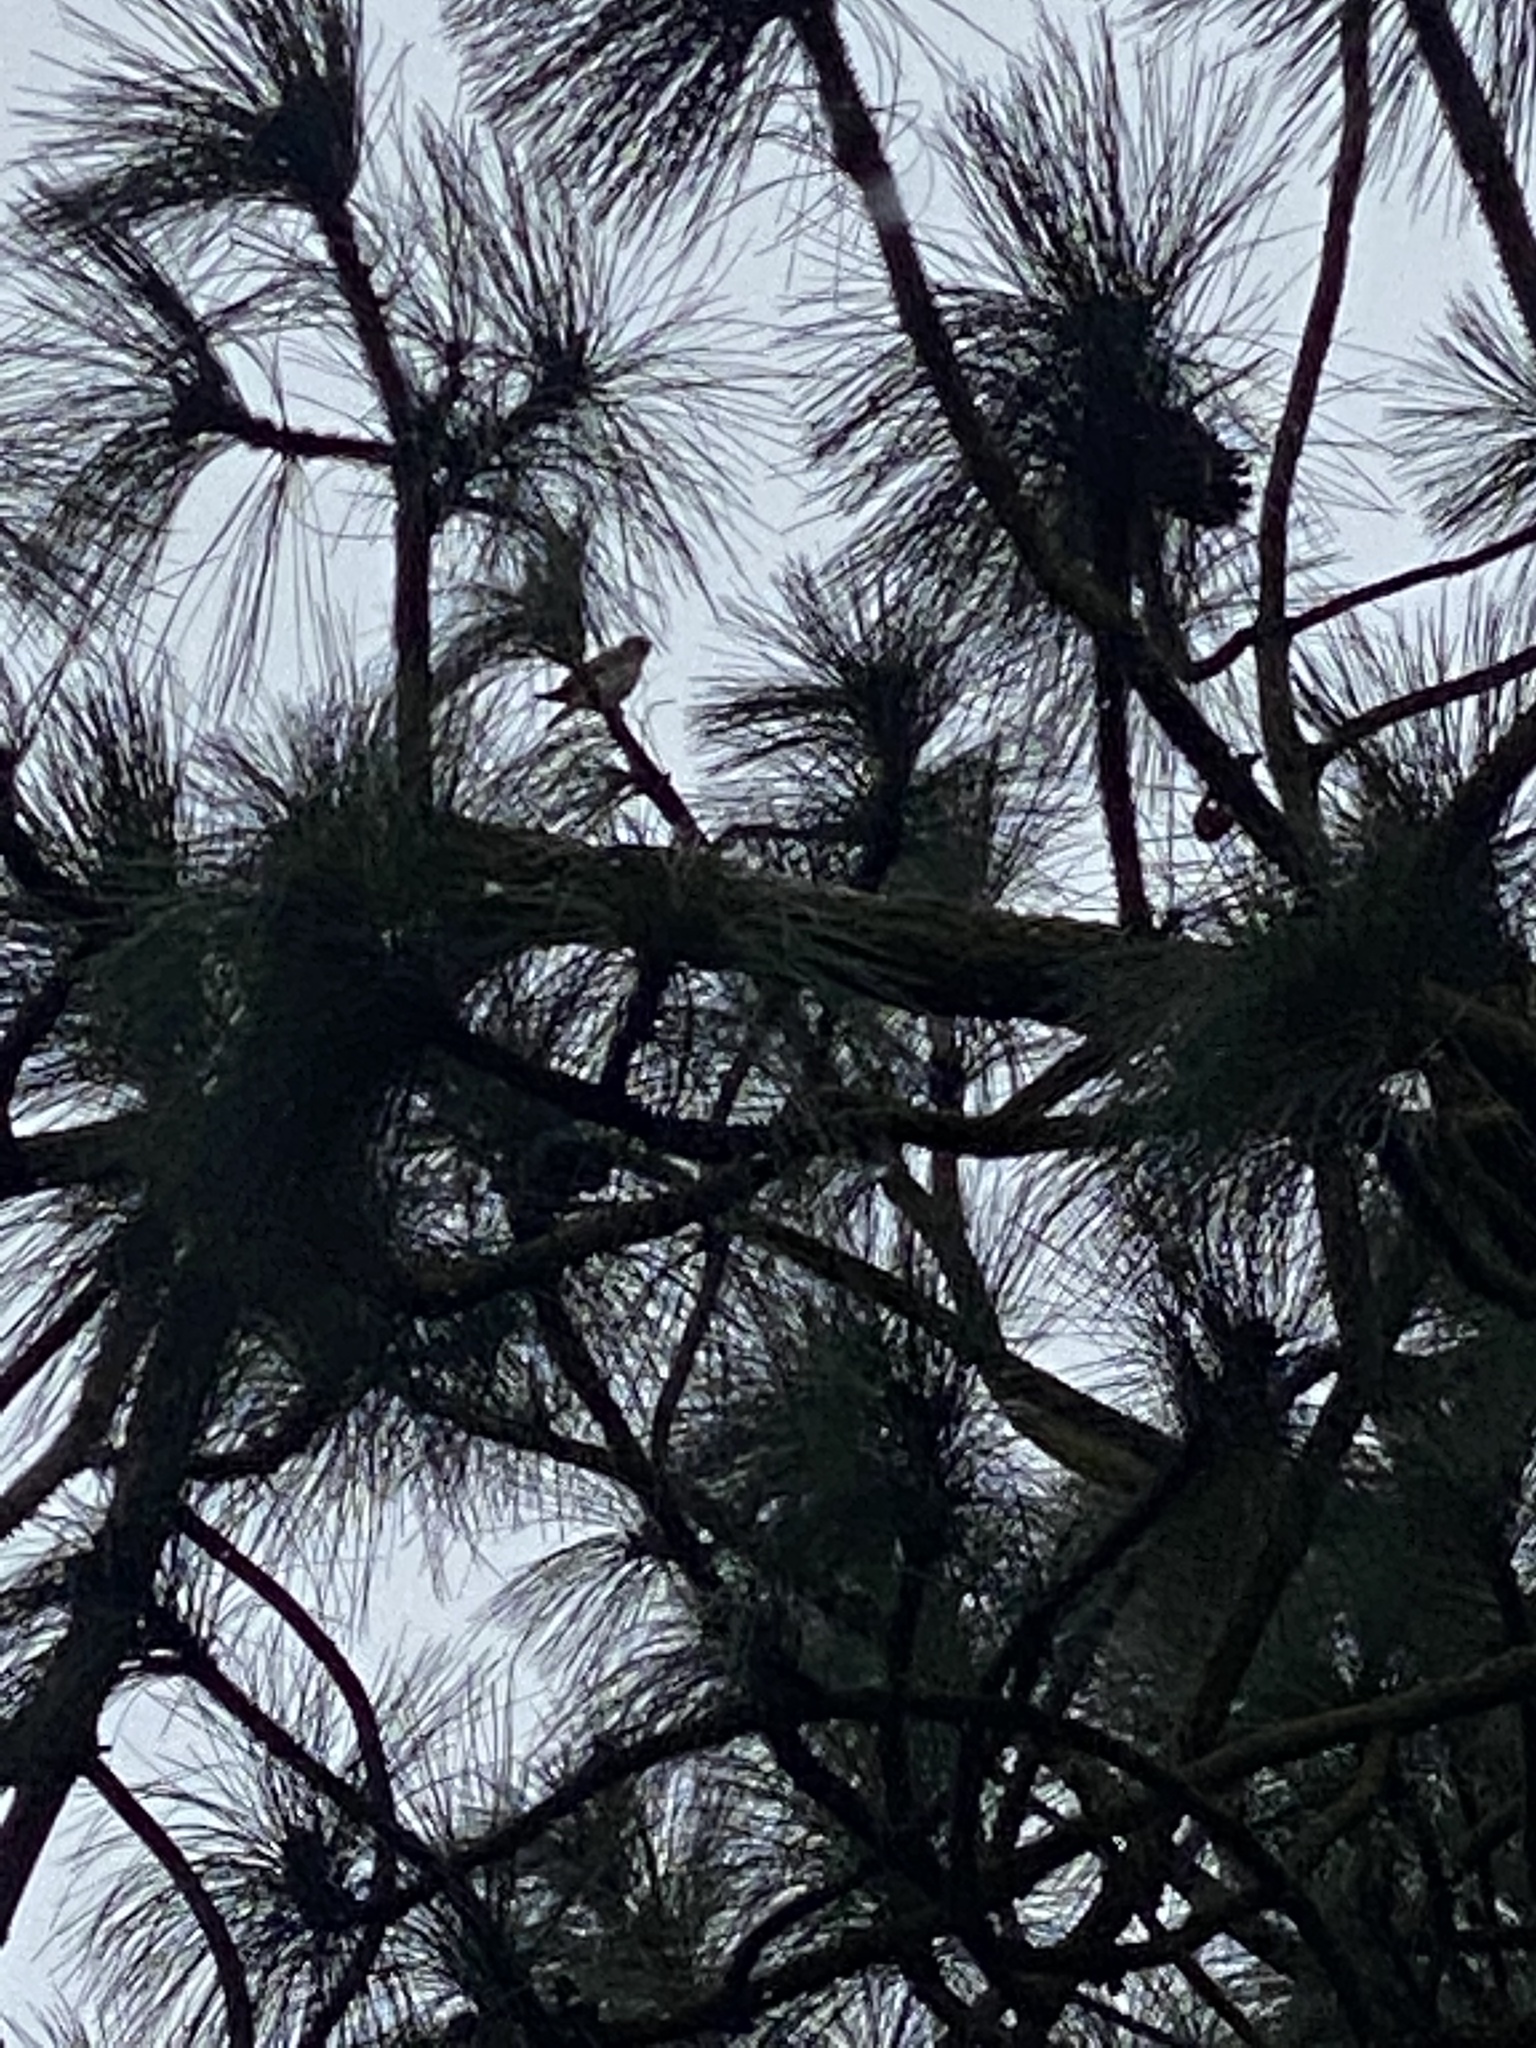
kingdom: Animalia
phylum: Chordata
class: Aves
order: Falconiformes
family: Falconidae
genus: Falco
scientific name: Falco sparverius
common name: American kestrel
